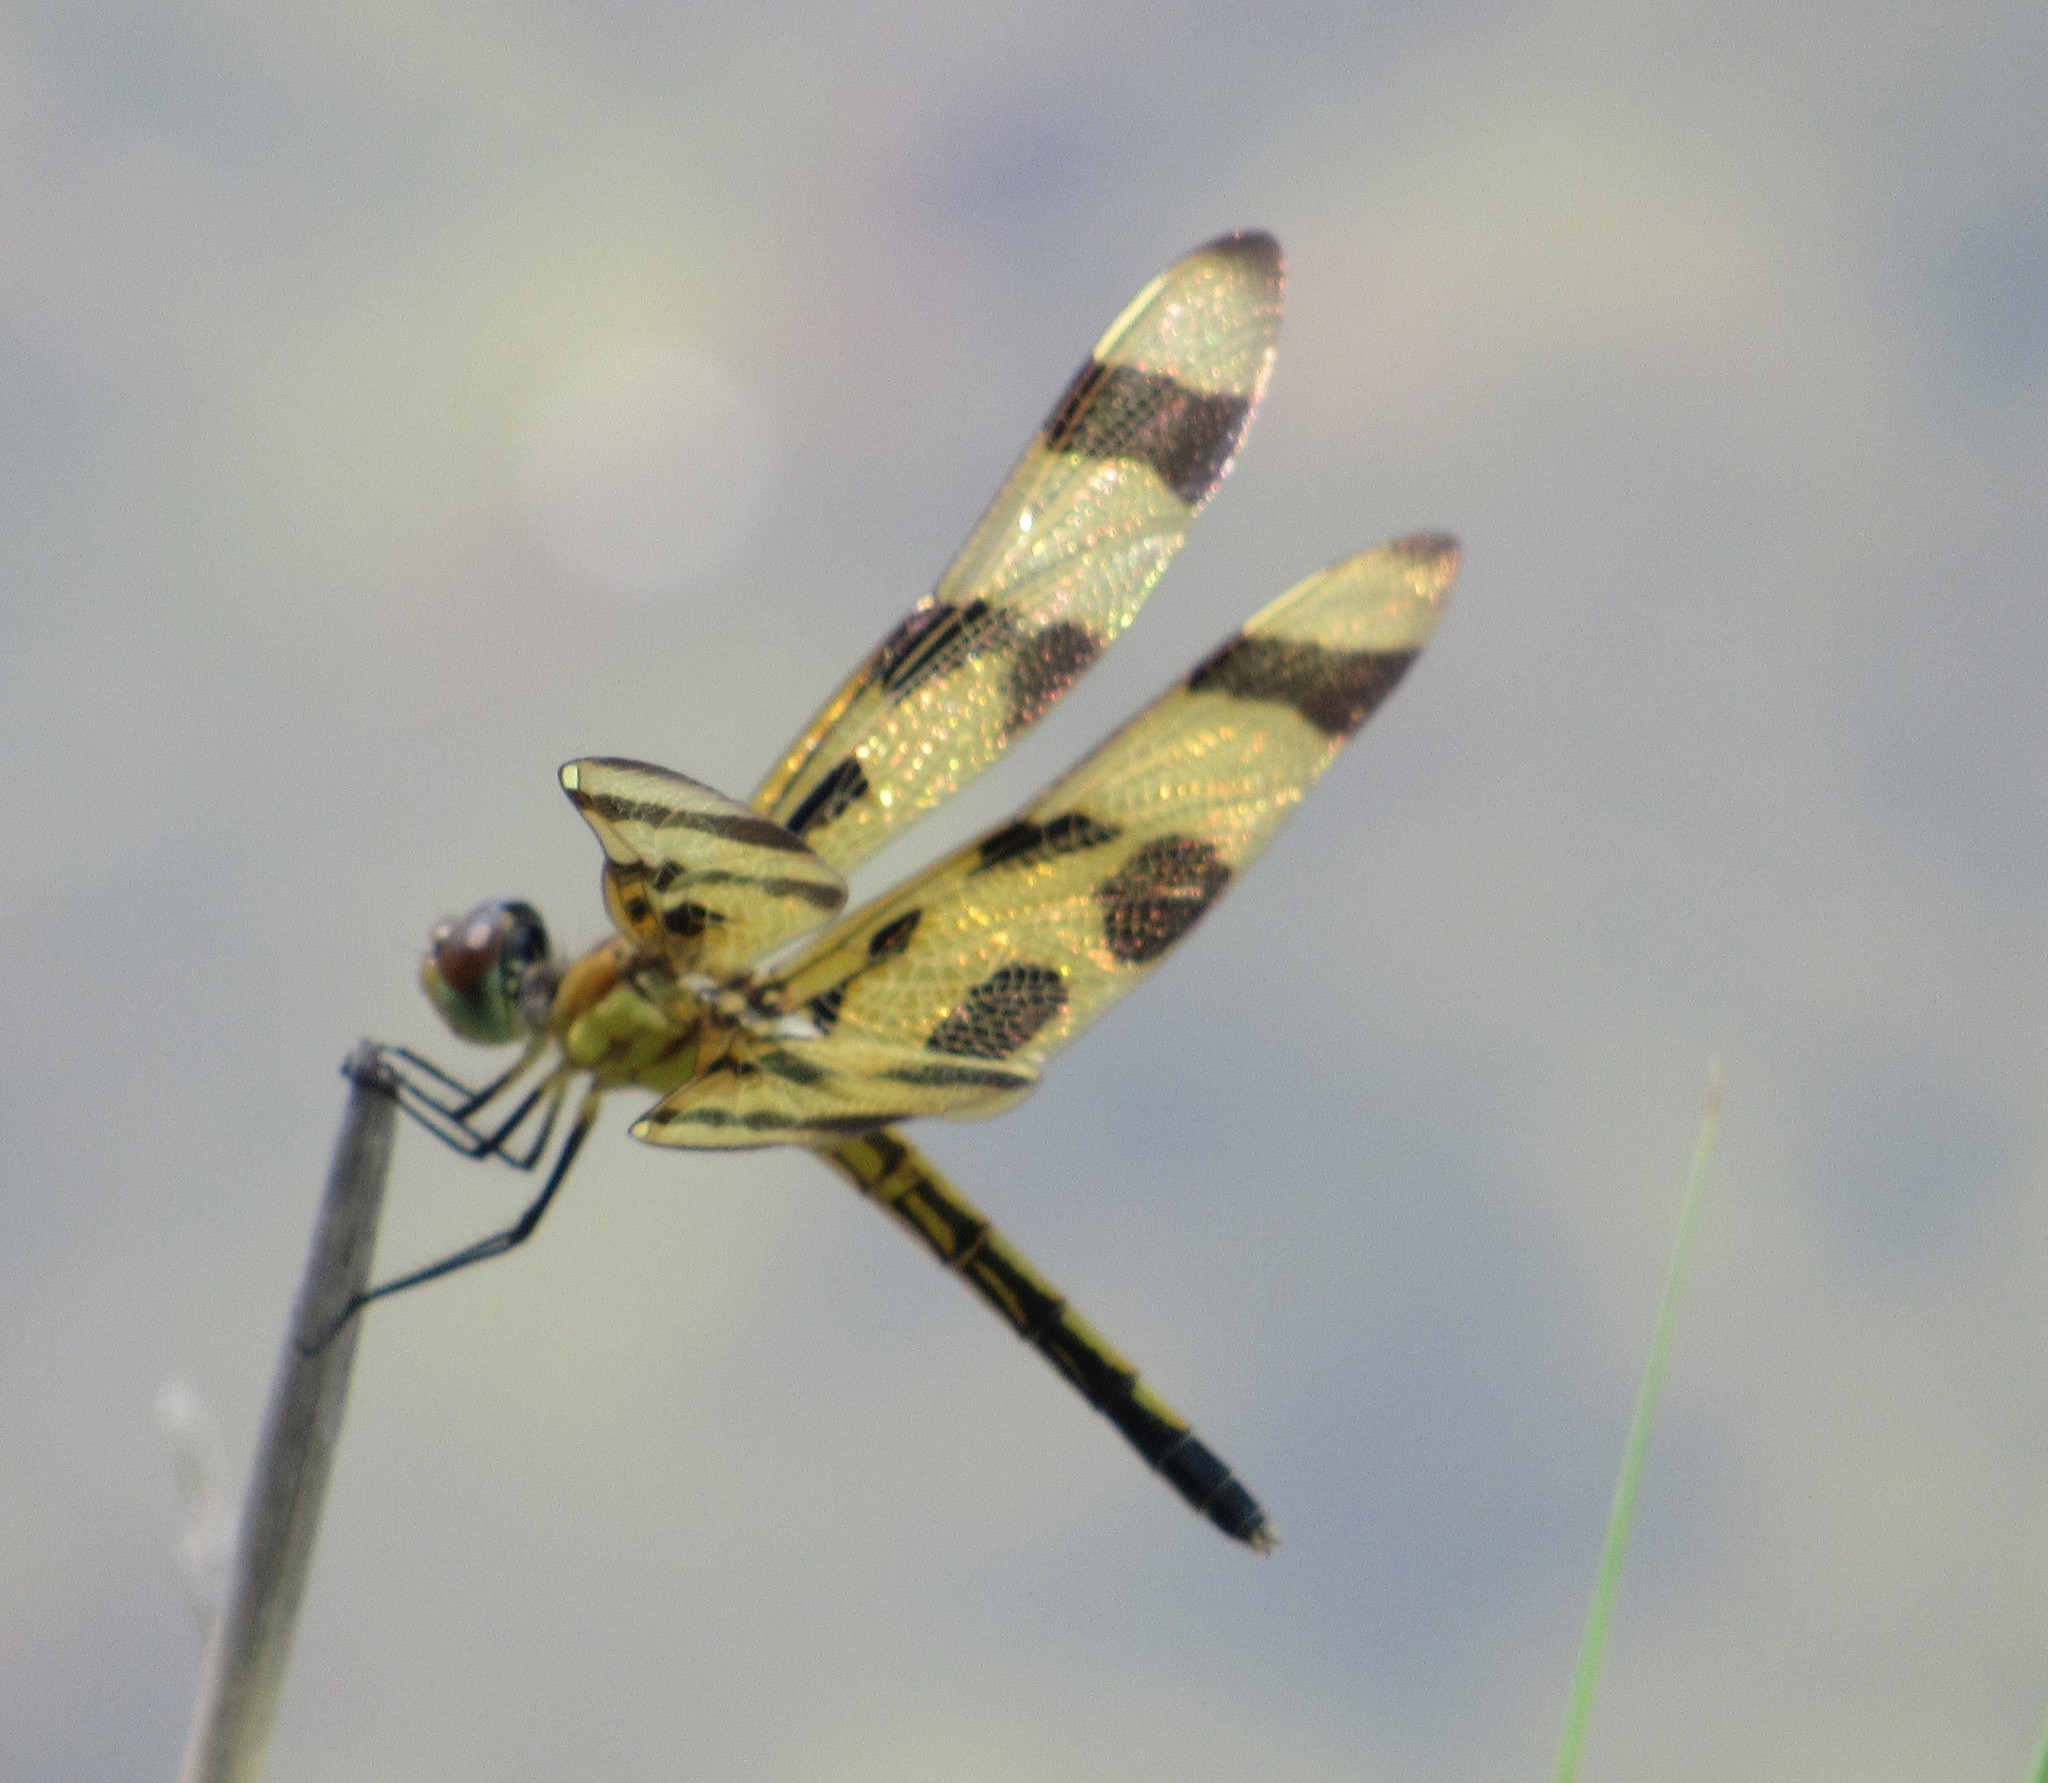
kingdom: Animalia
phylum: Arthropoda
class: Insecta
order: Odonata
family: Libellulidae
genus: Celithemis
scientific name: Celithemis eponina
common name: Halloween pennant
